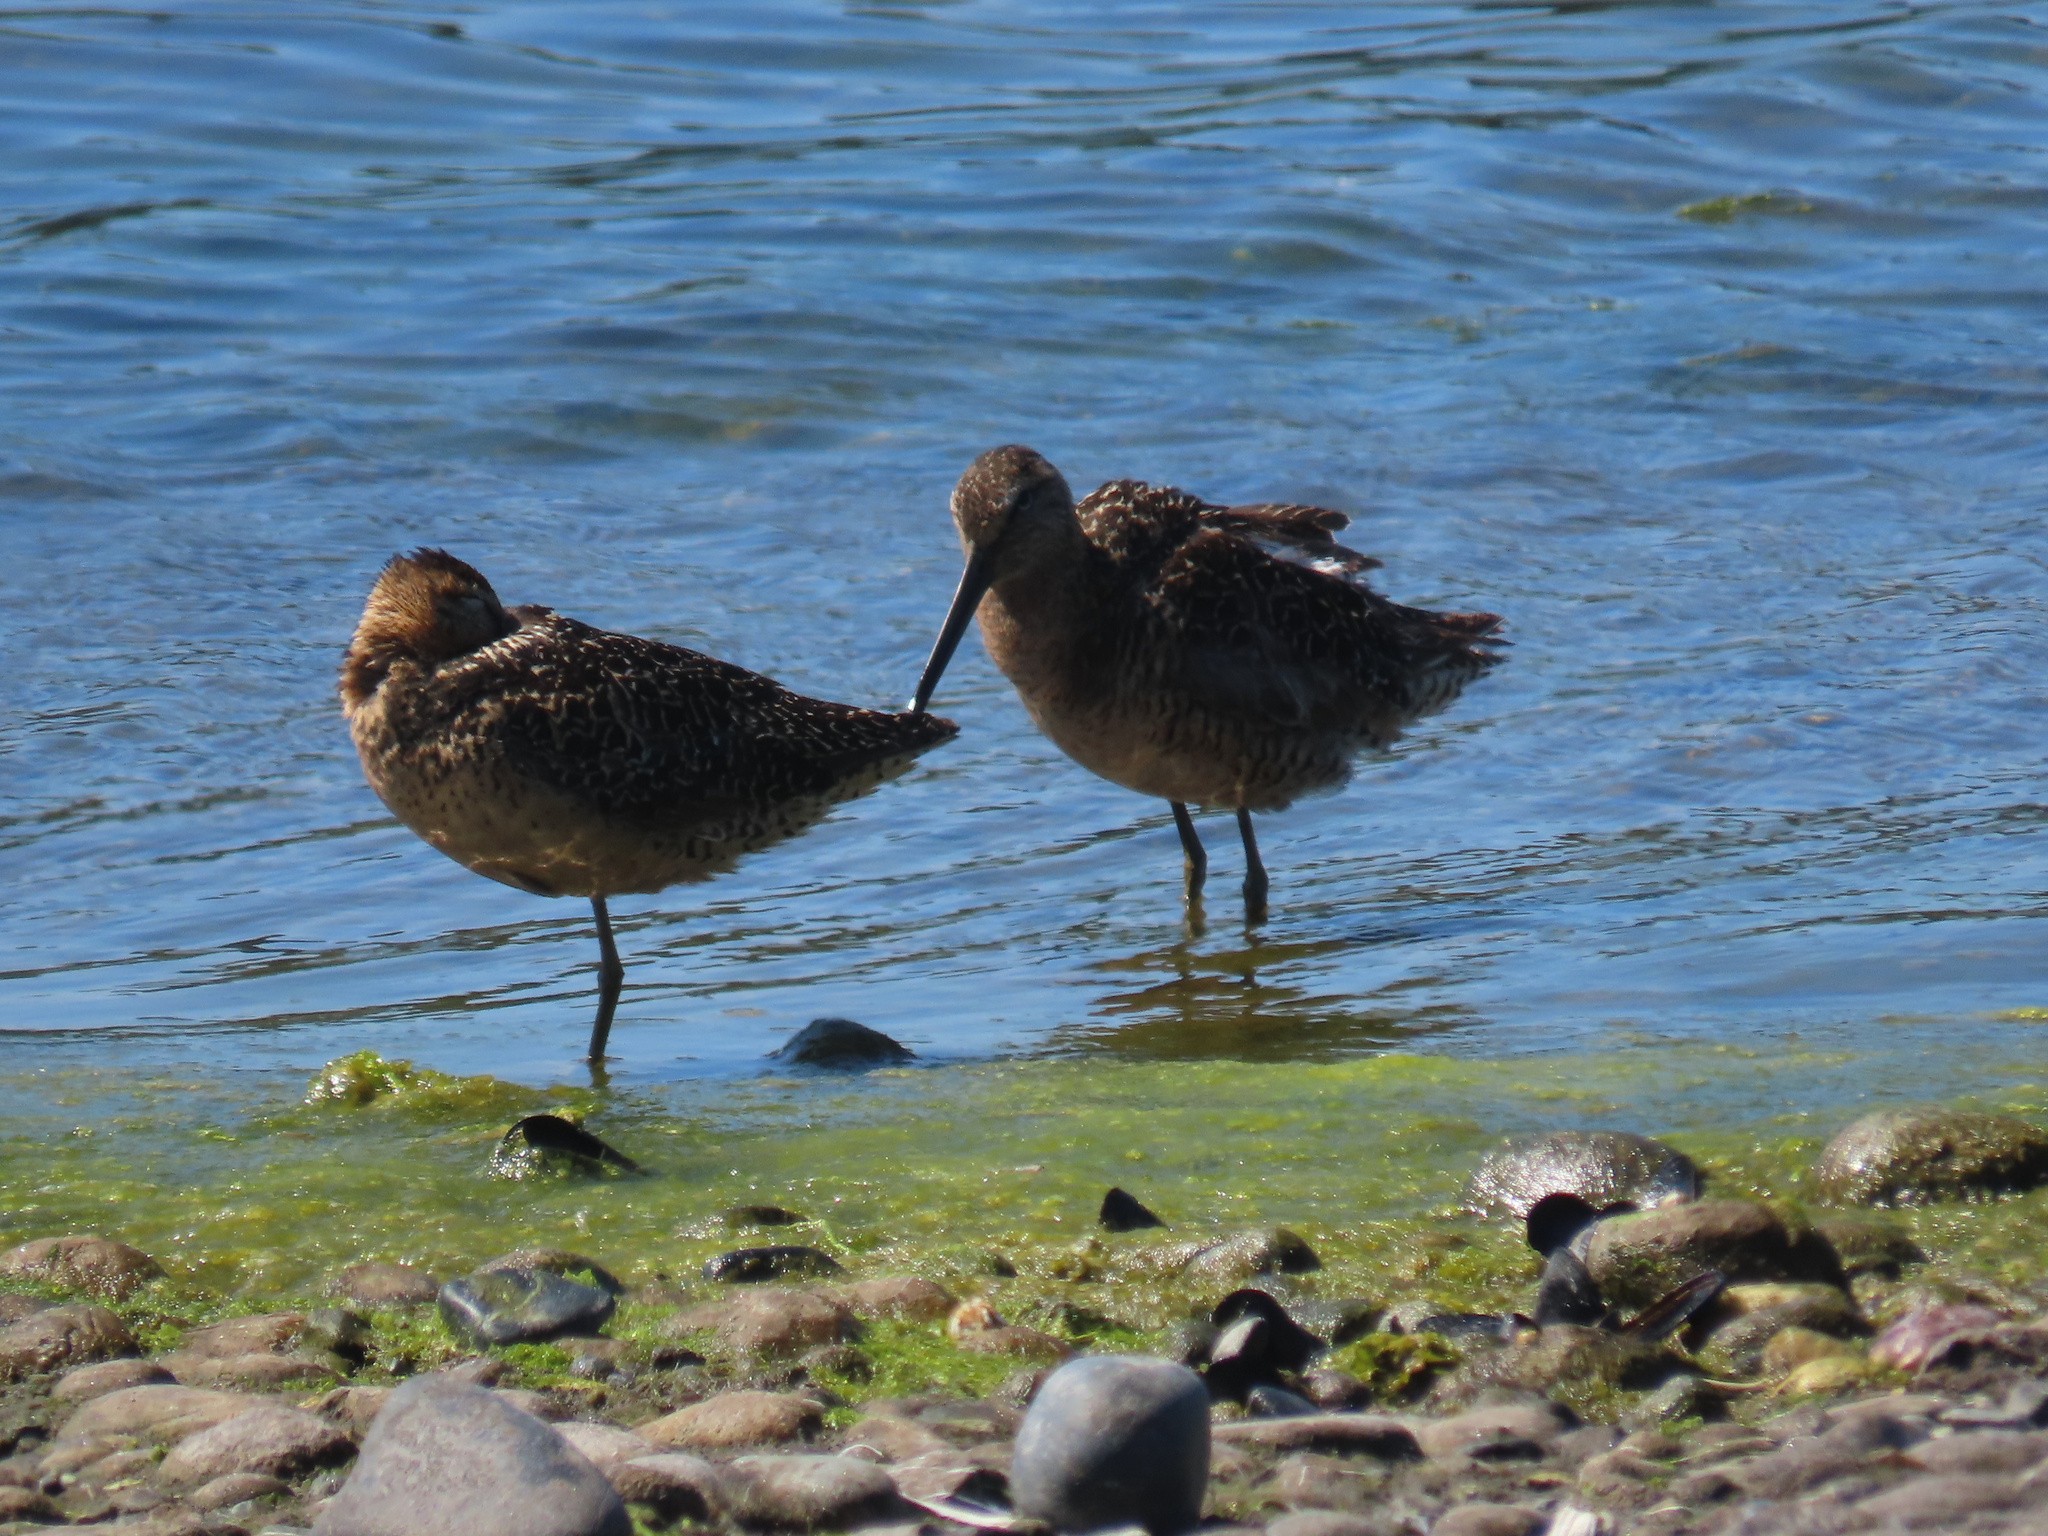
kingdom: Animalia
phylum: Chordata
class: Aves
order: Charadriiformes
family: Scolopacidae
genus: Limnodromus
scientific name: Limnodromus scolopaceus
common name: Long-billed dowitcher
